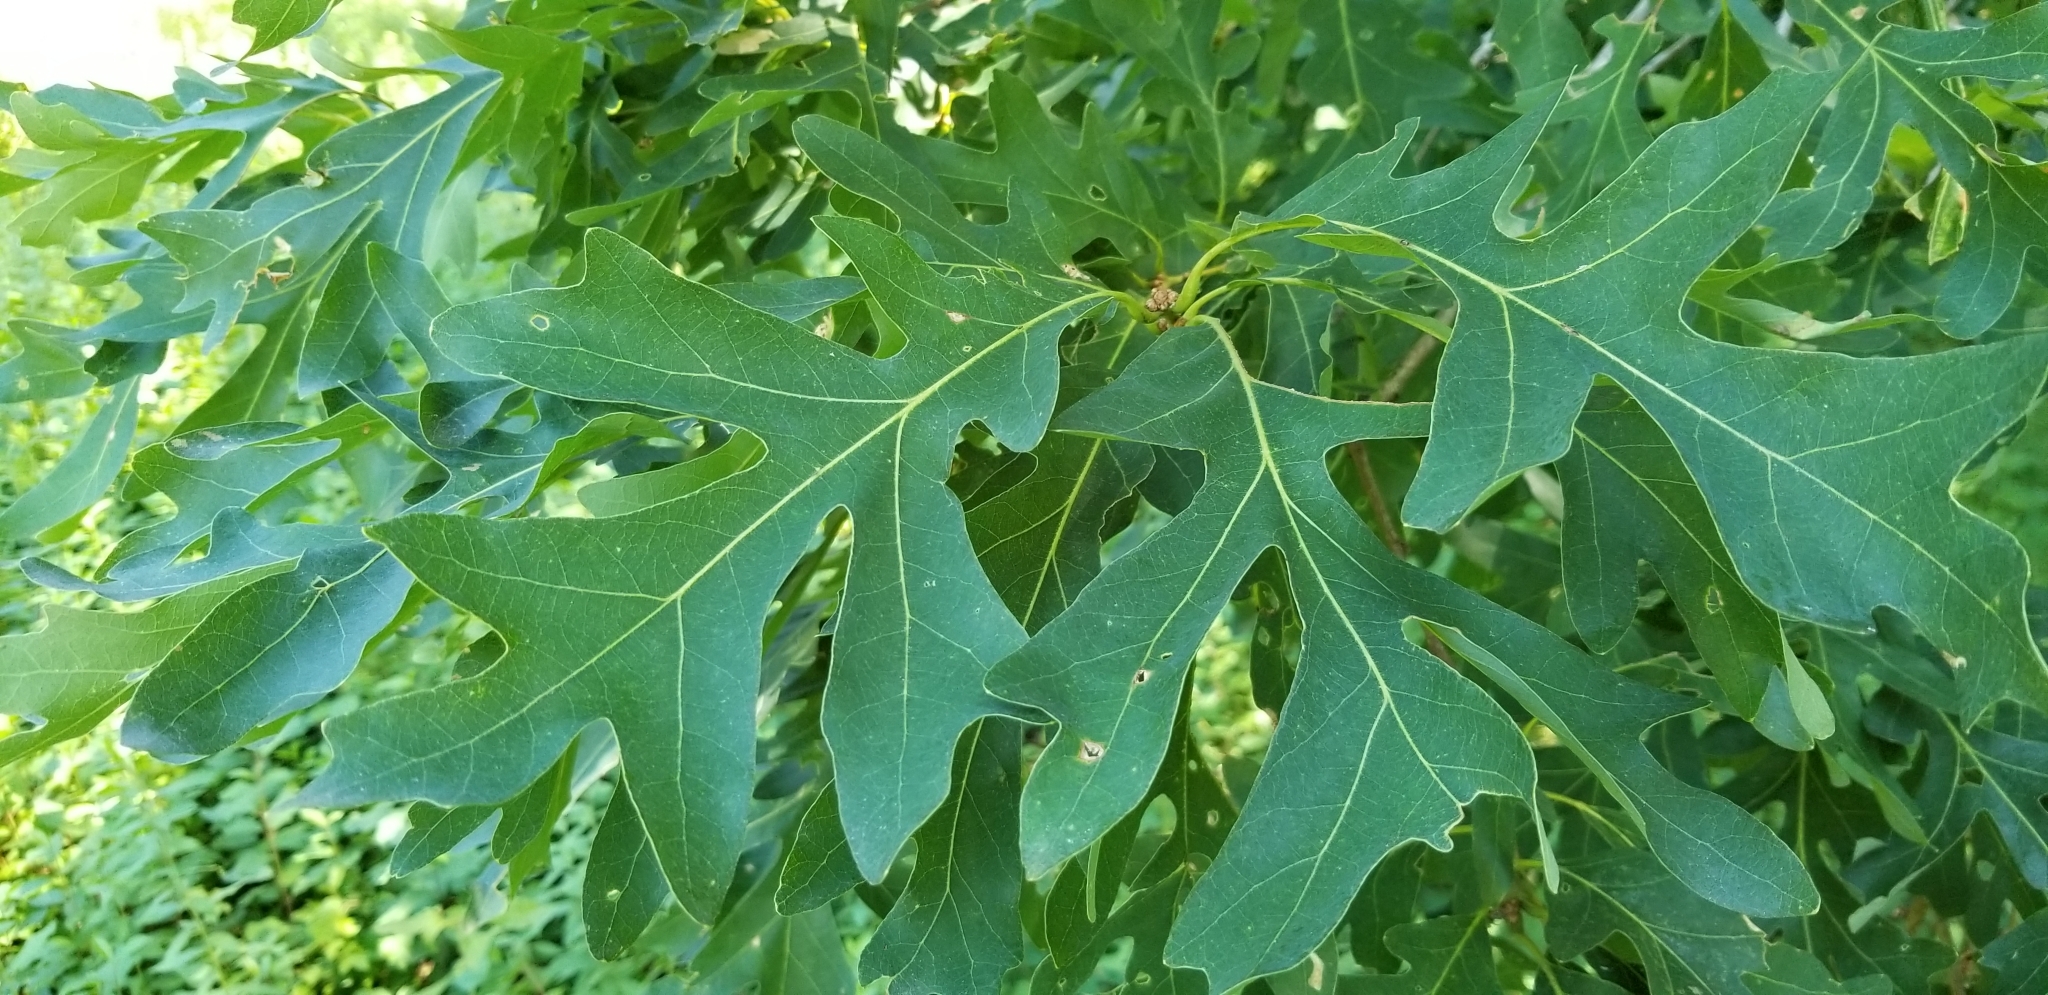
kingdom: Plantae
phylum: Tracheophyta
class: Magnoliopsida
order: Fagales
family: Fagaceae
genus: Quercus
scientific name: Quercus alba
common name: White oak
